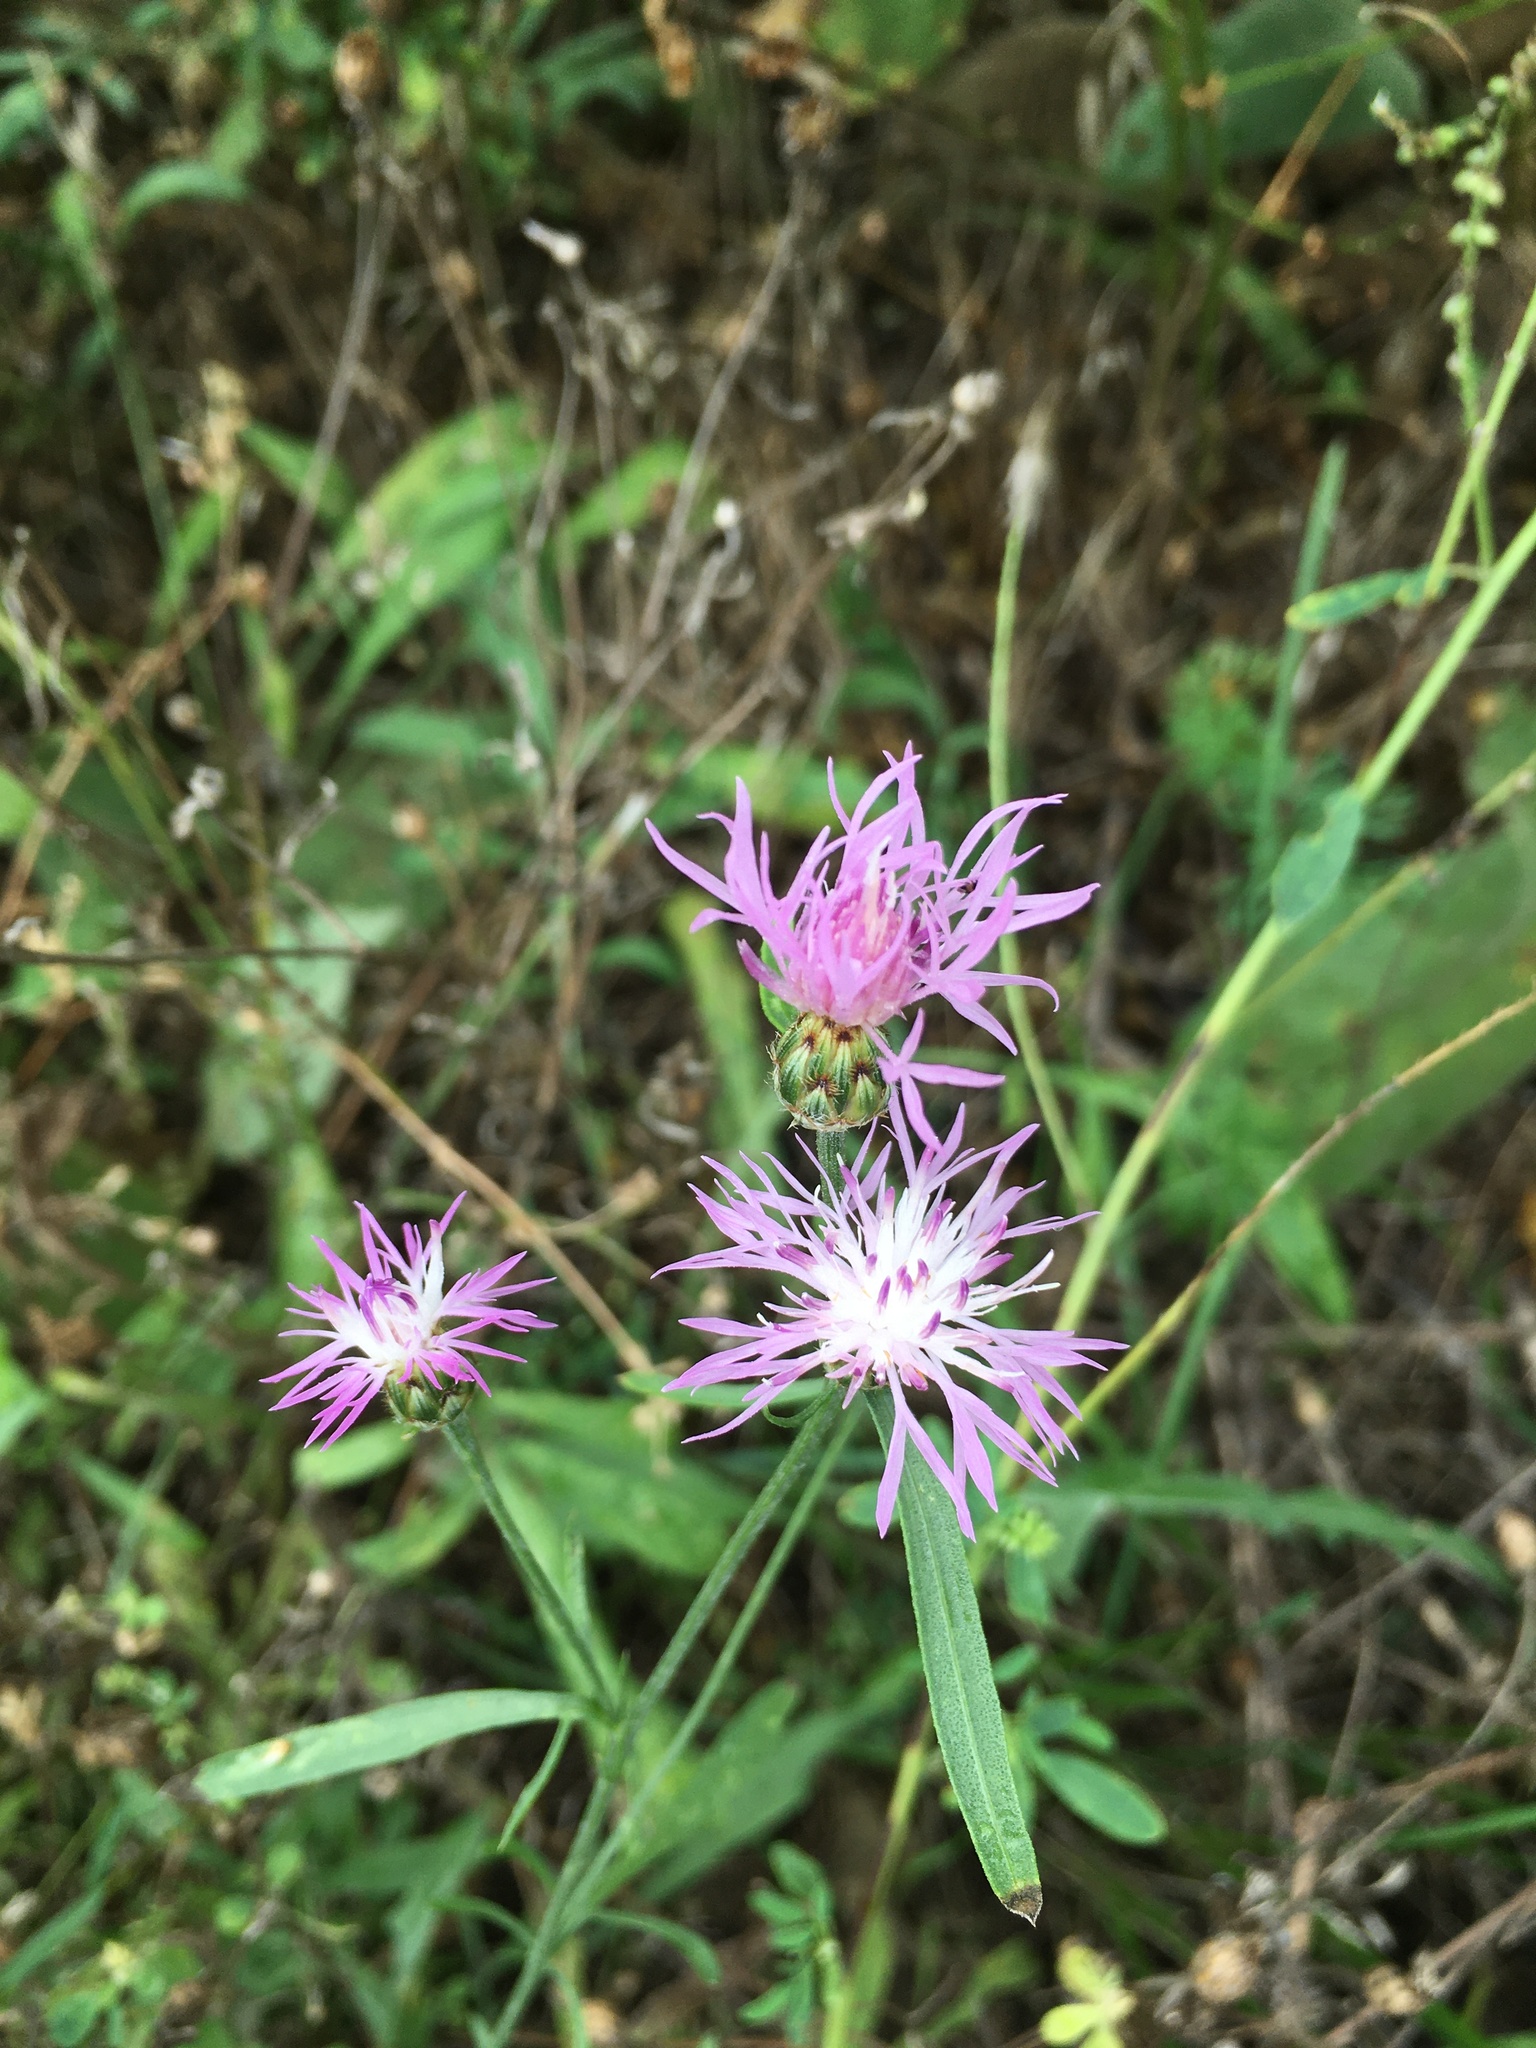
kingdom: Plantae
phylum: Tracheophyta
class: Magnoliopsida
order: Asterales
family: Asteraceae
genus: Centaurea
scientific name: Centaurea stoebe
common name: Spotted knapweed
